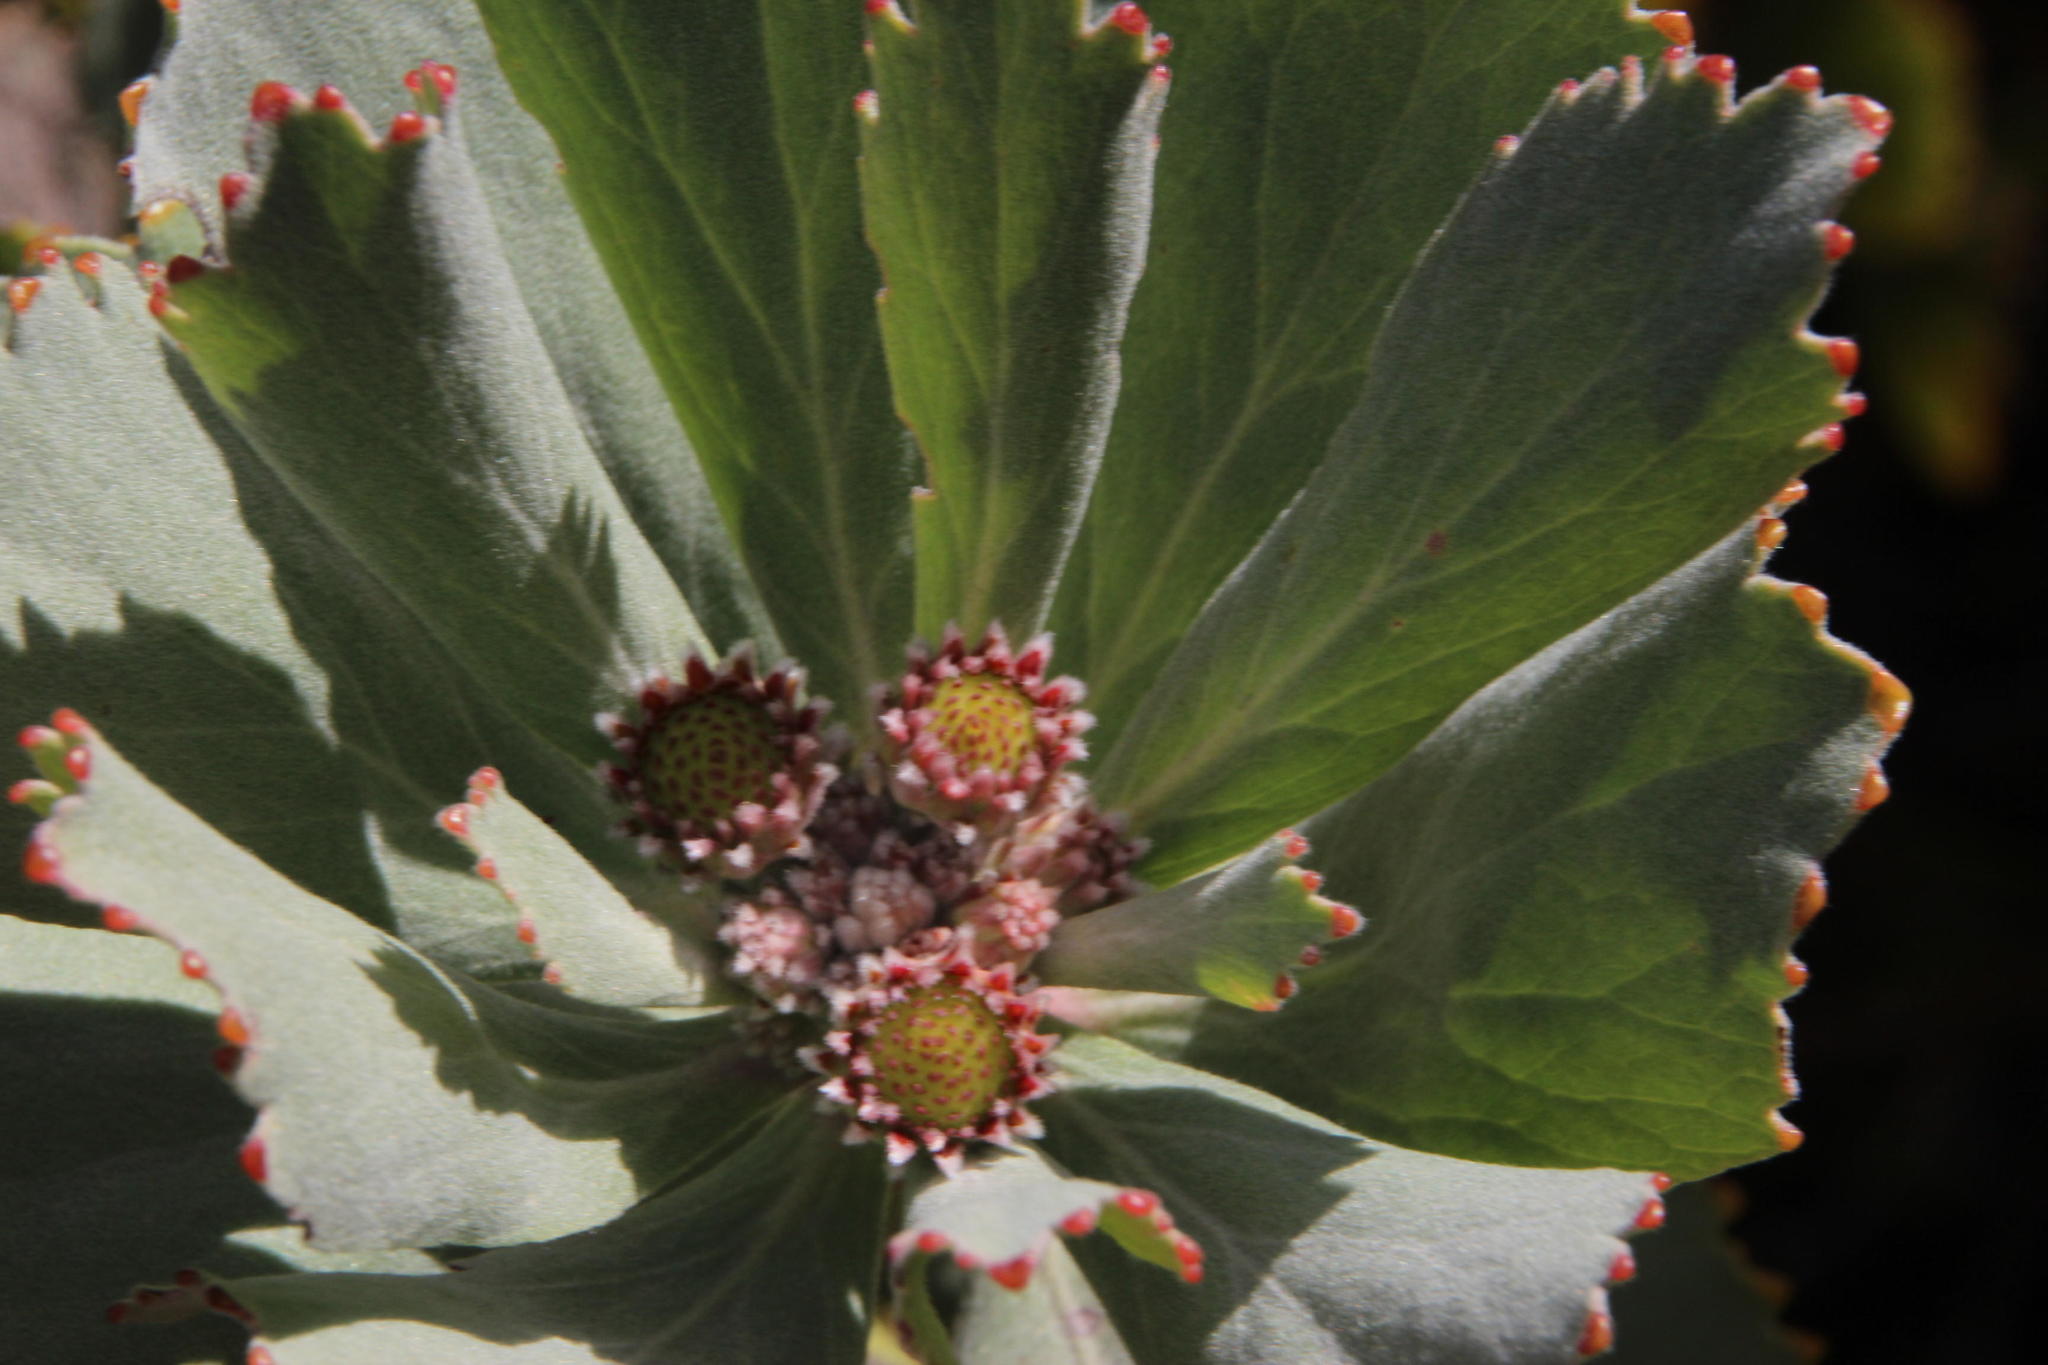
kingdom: Plantae
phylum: Tracheophyta
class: Magnoliopsida
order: Proteales
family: Proteaceae
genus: Leucospermum
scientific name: Leucospermum winteri
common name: Riversdale pincushion
